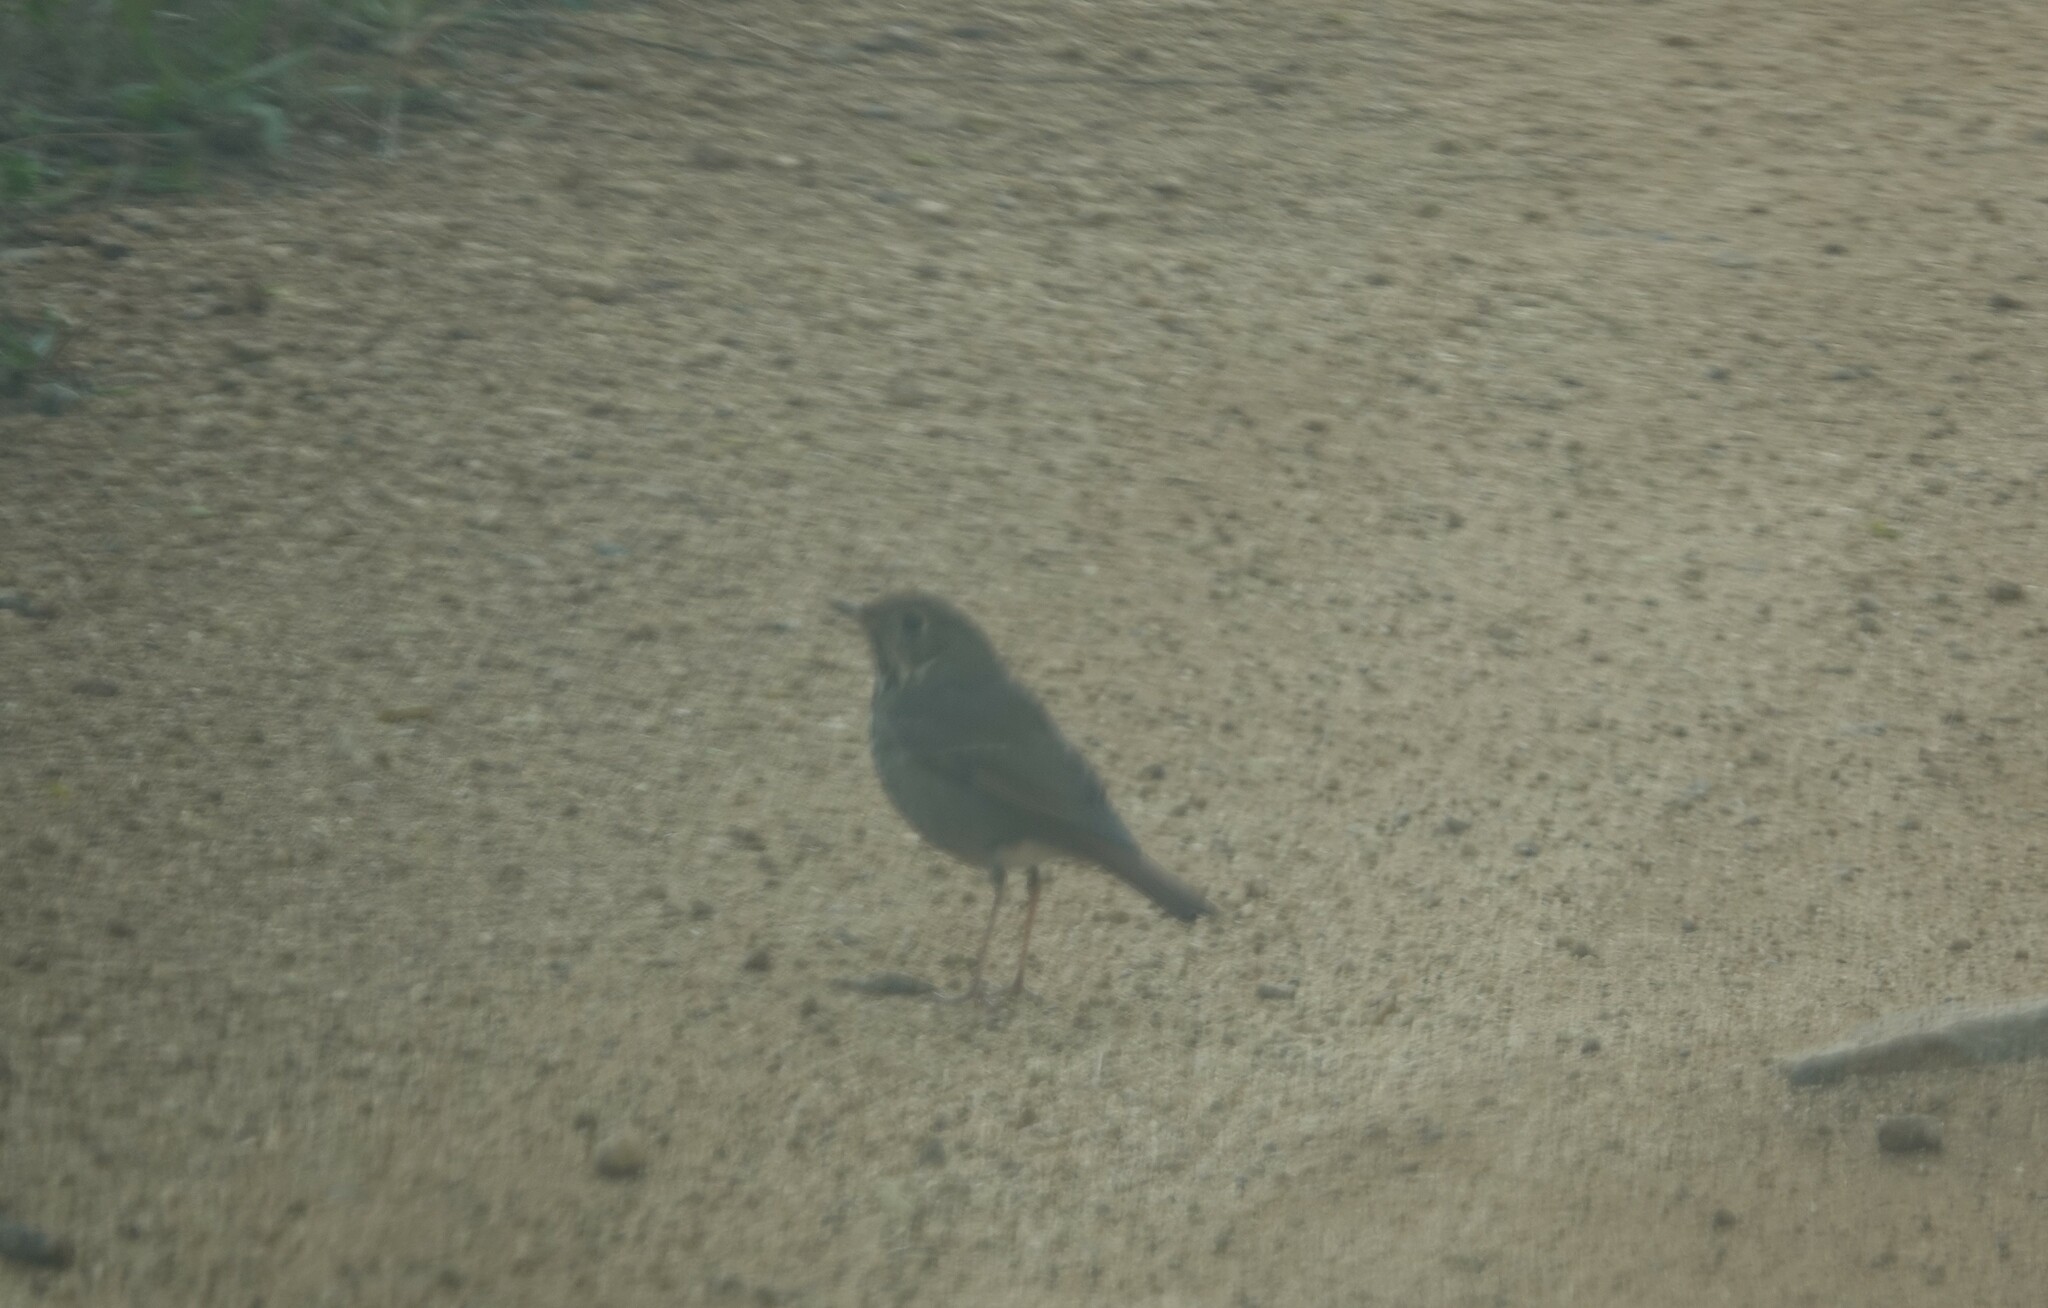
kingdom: Animalia
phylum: Chordata
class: Aves
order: Passeriformes
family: Turdidae
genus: Catharus
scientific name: Catharus guttatus
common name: Hermit thrush
